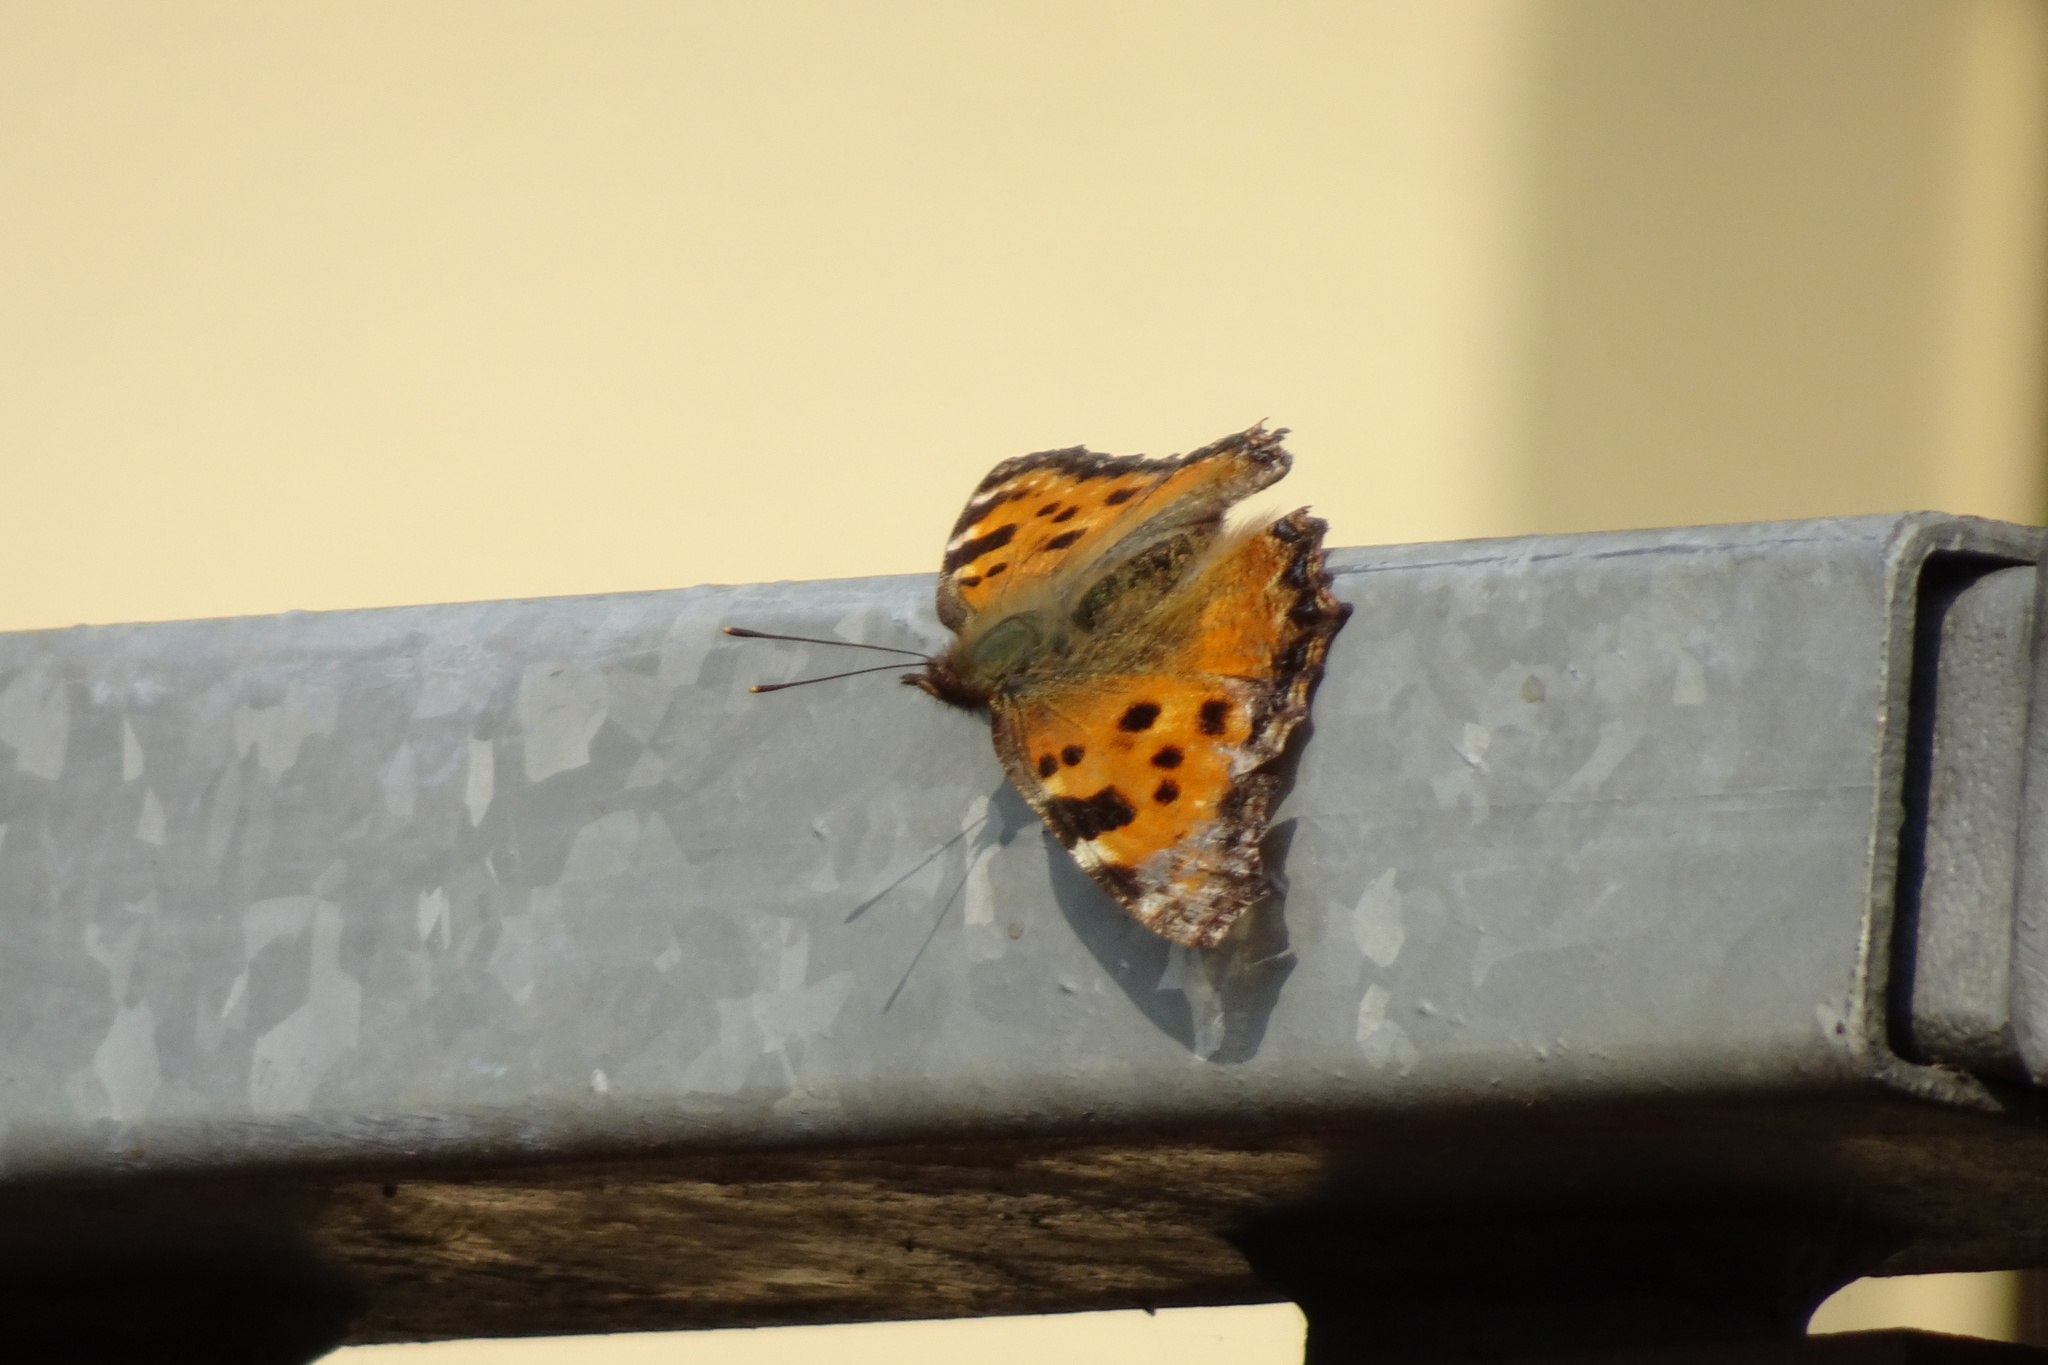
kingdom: Animalia
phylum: Arthropoda
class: Insecta
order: Lepidoptera
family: Nymphalidae
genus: Nymphalis
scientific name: Nymphalis polychloros
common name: Large tortoiseshell
